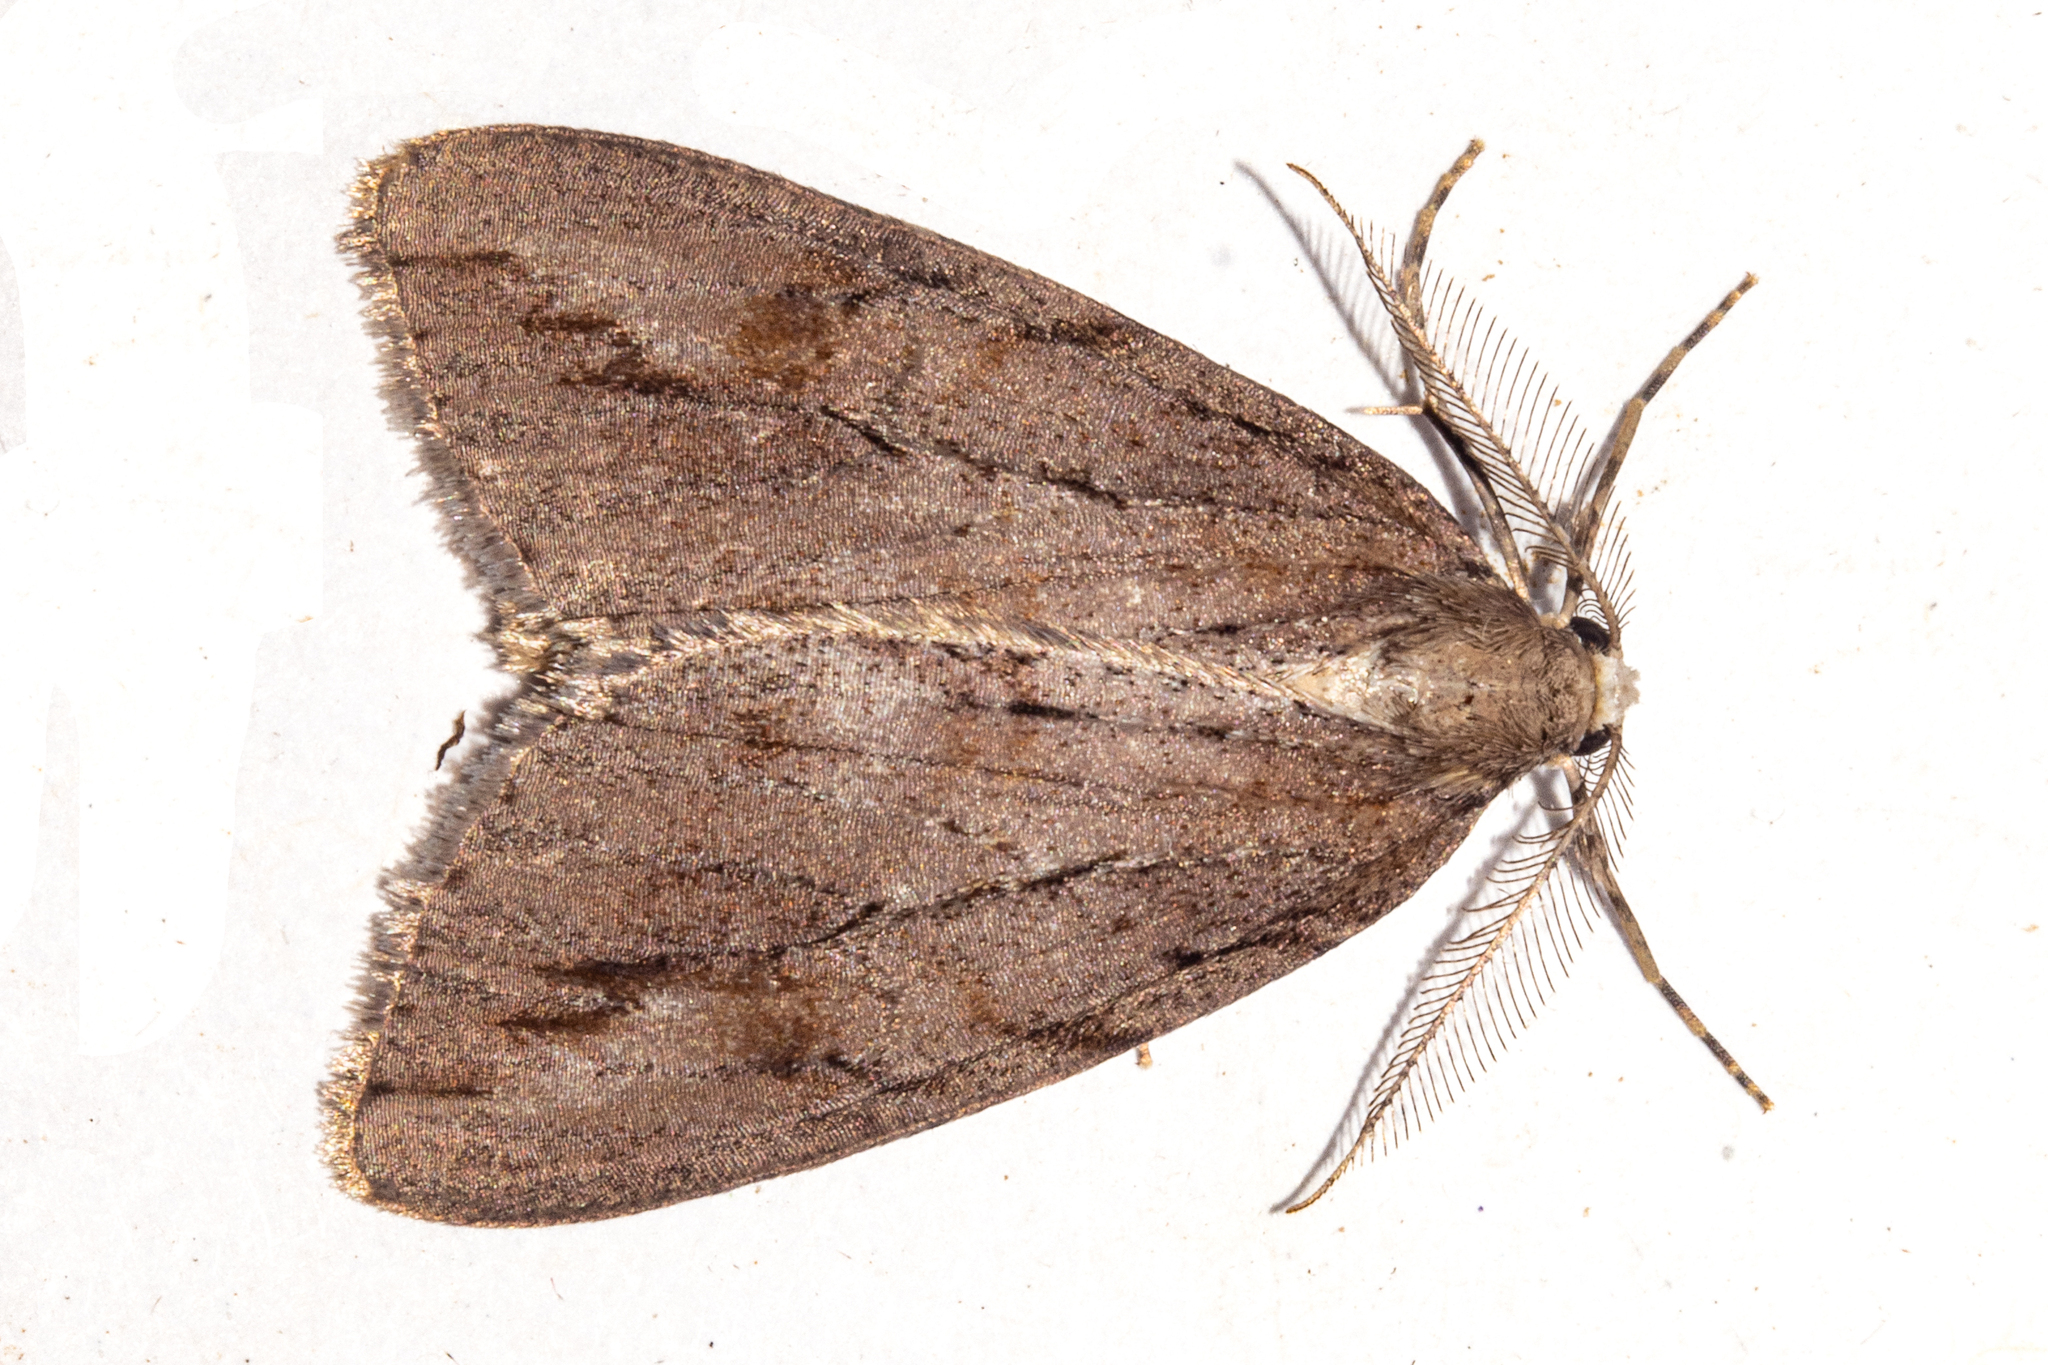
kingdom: Animalia
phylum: Arthropoda
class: Insecta
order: Lepidoptera
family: Geometridae
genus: Pseudocoremia
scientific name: Pseudocoremia lupinata
